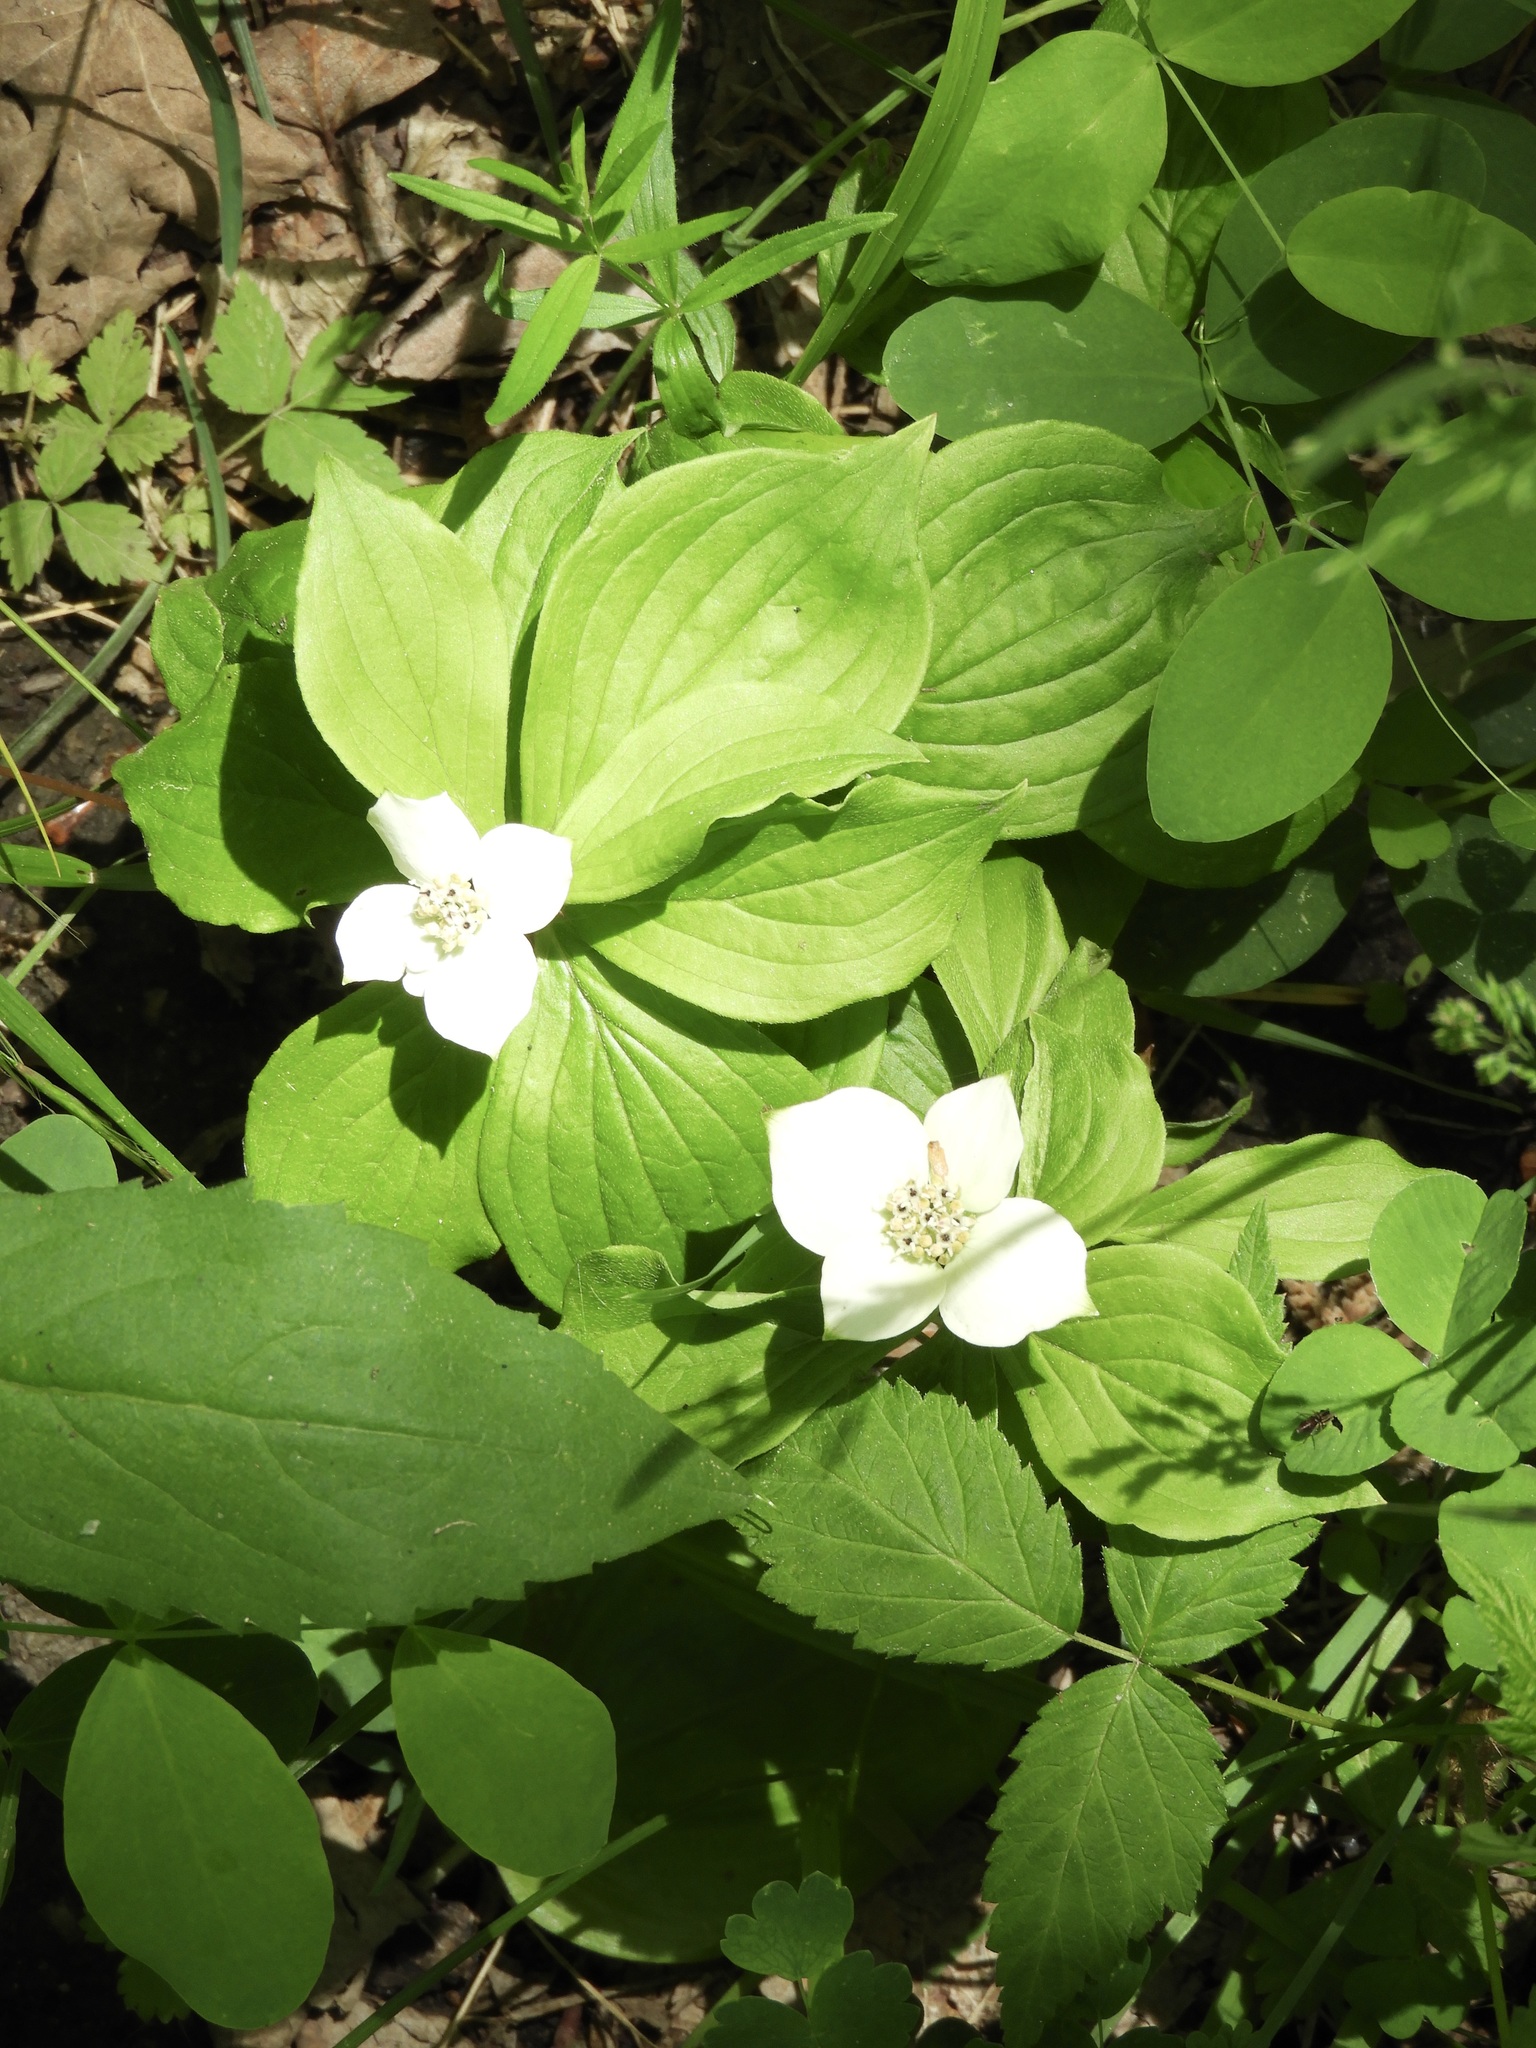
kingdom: Plantae
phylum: Tracheophyta
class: Magnoliopsida
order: Cornales
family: Cornaceae
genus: Cornus
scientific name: Cornus canadensis
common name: Creeping dogwood
